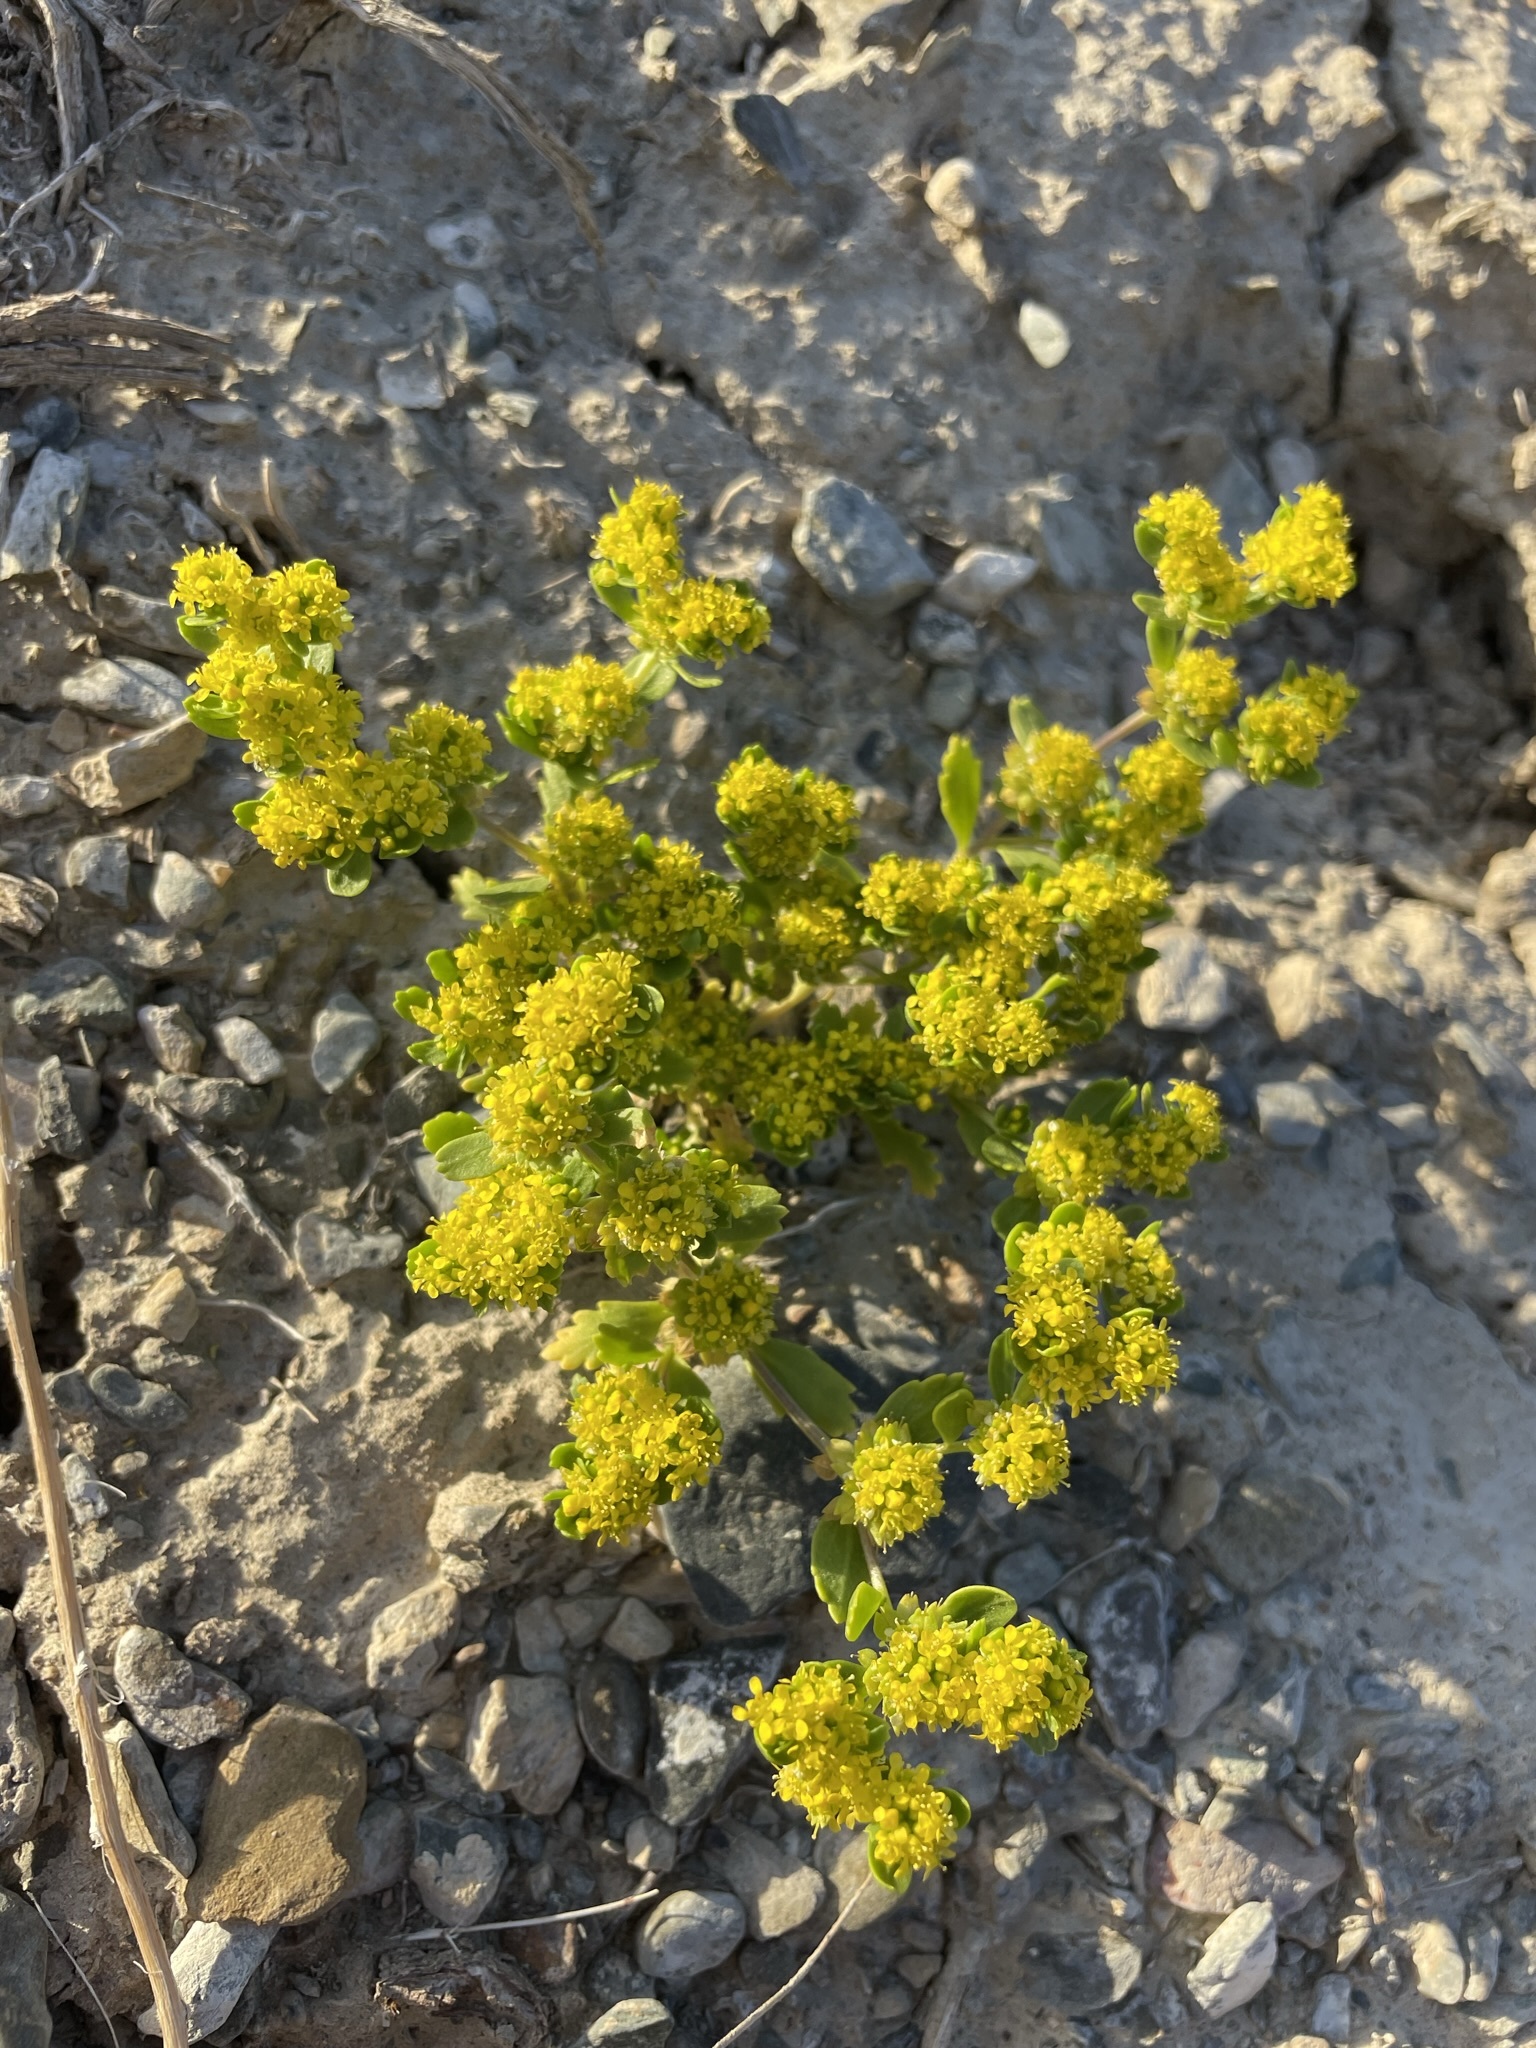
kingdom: Plantae
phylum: Tracheophyta
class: Magnoliopsida
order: Brassicales
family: Brassicaceae
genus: Lepidium
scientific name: Lepidium flavum
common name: Yellow pepperwort
